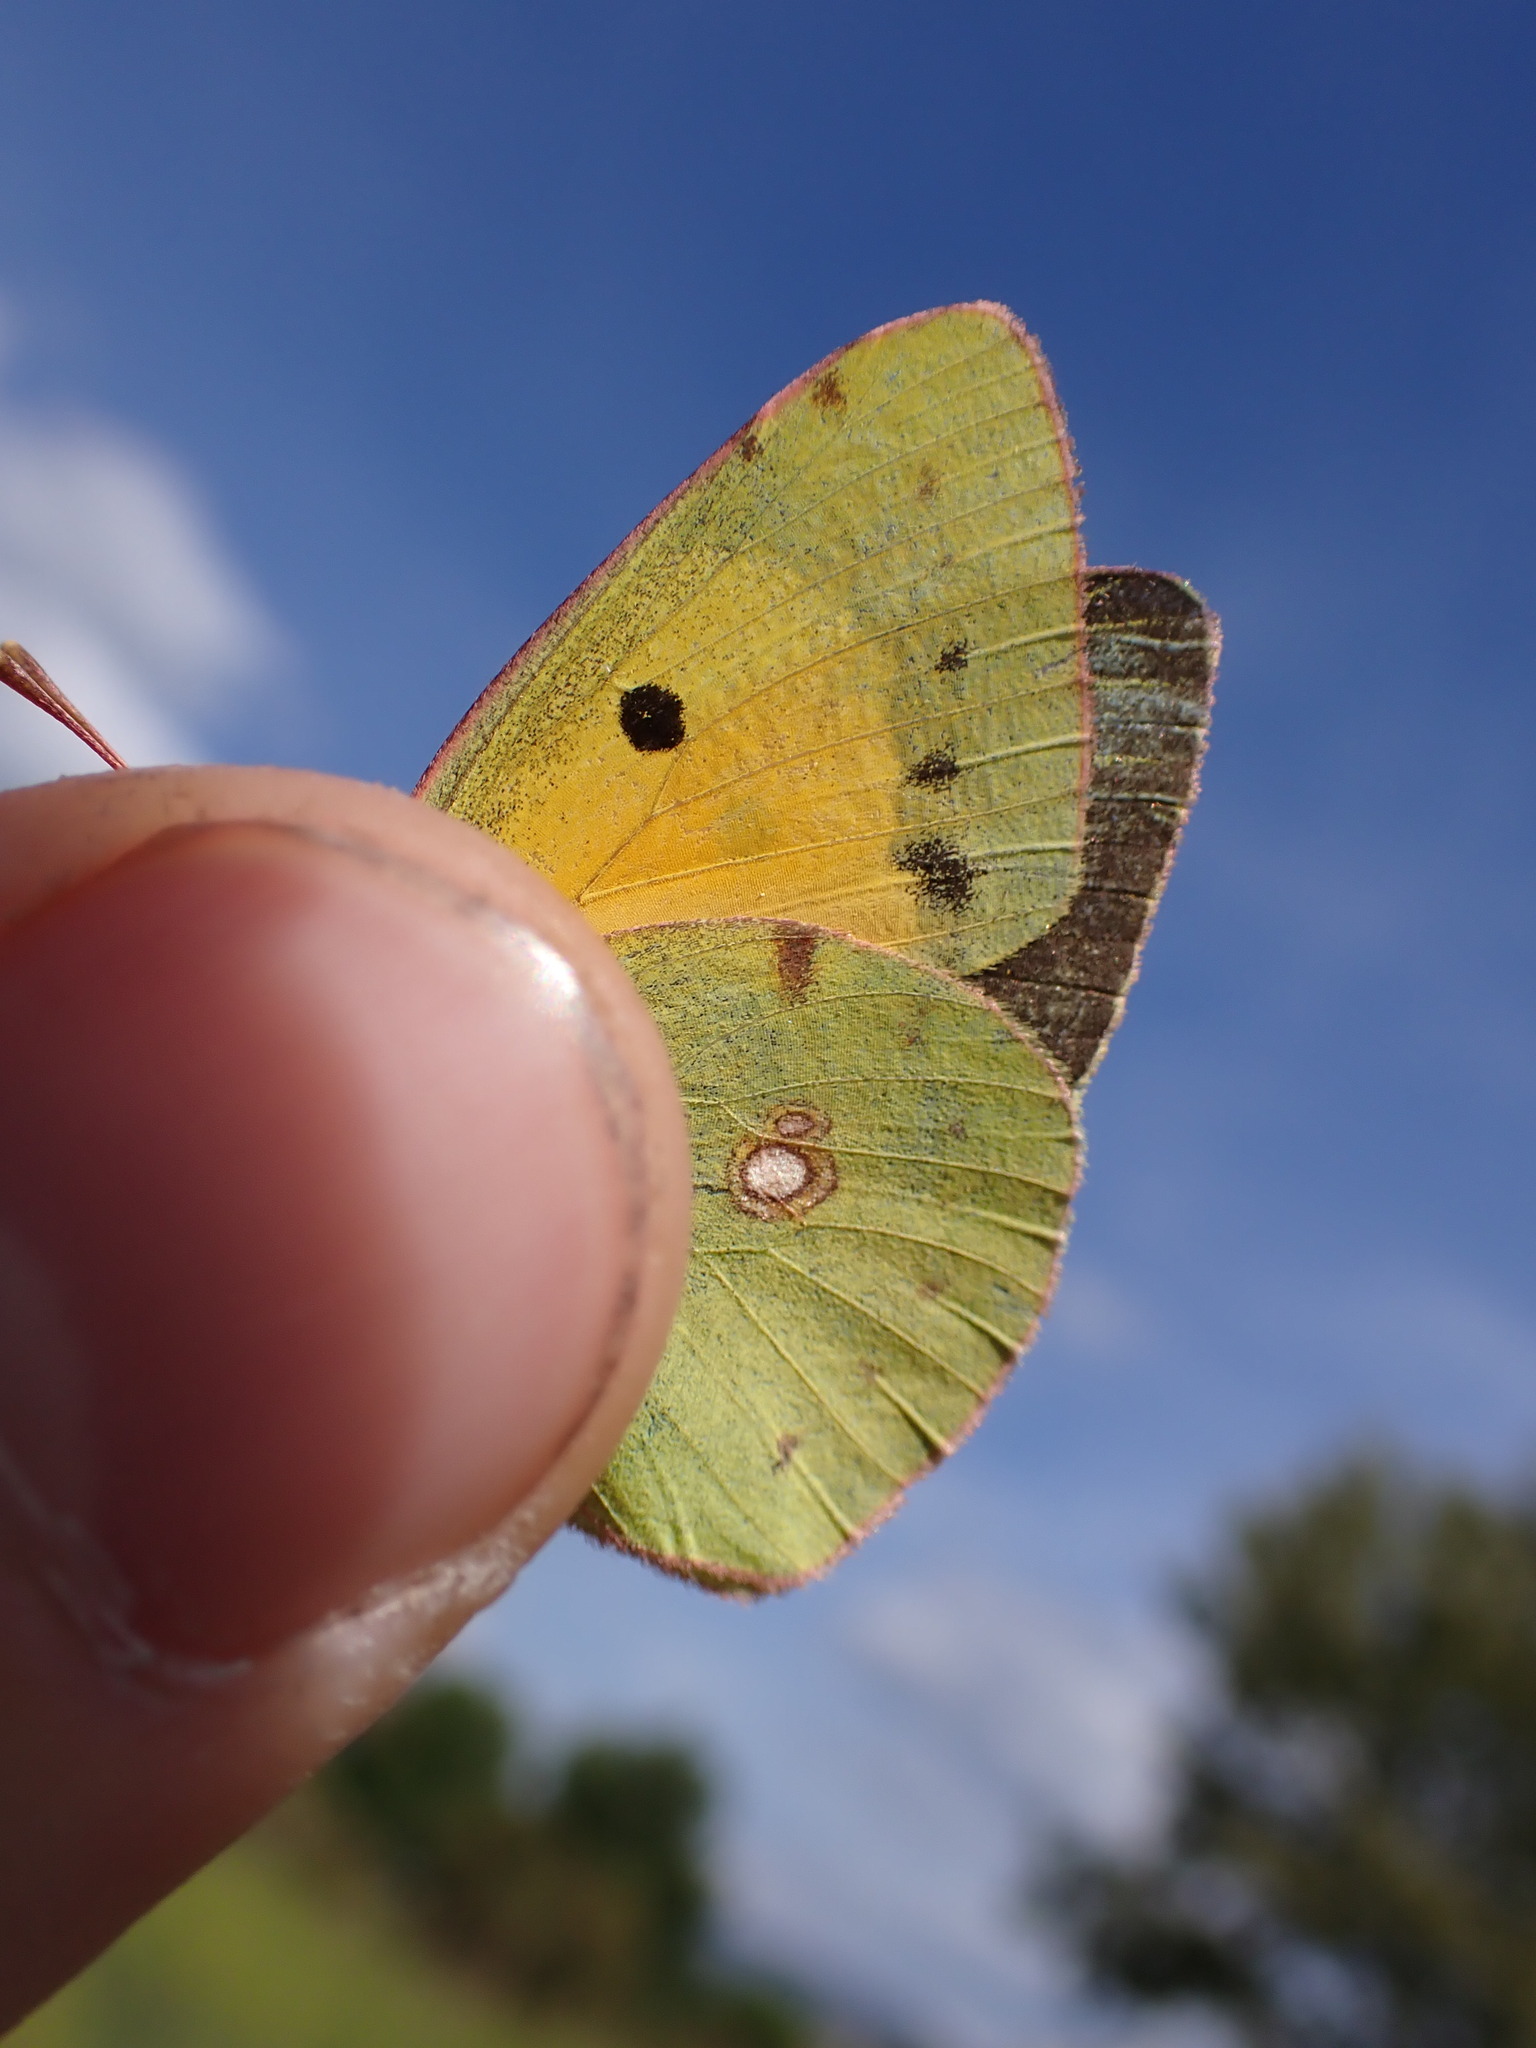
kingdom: Animalia
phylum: Arthropoda
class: Insecta
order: Lepidoptera
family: Pieridae
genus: Colias
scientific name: Colias croceus
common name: Clouded yellow
